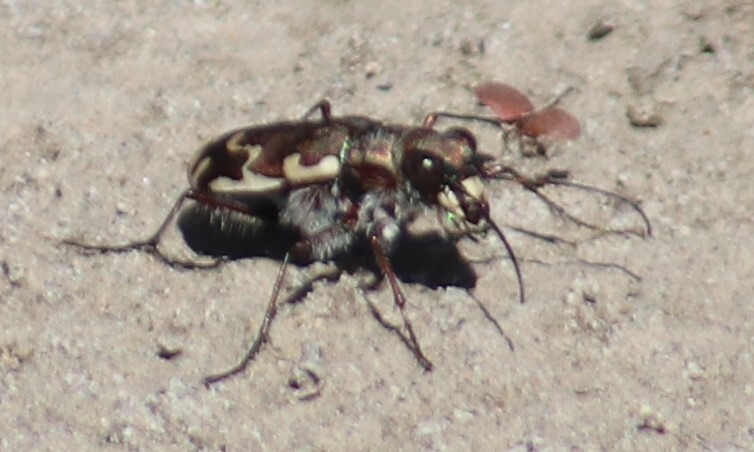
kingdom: Animalia
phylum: Arthropoda
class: Insecta
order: Coleoptera
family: Carabidae
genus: Cicindela
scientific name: Cicindela repanda
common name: Bronzed tiger beetle
